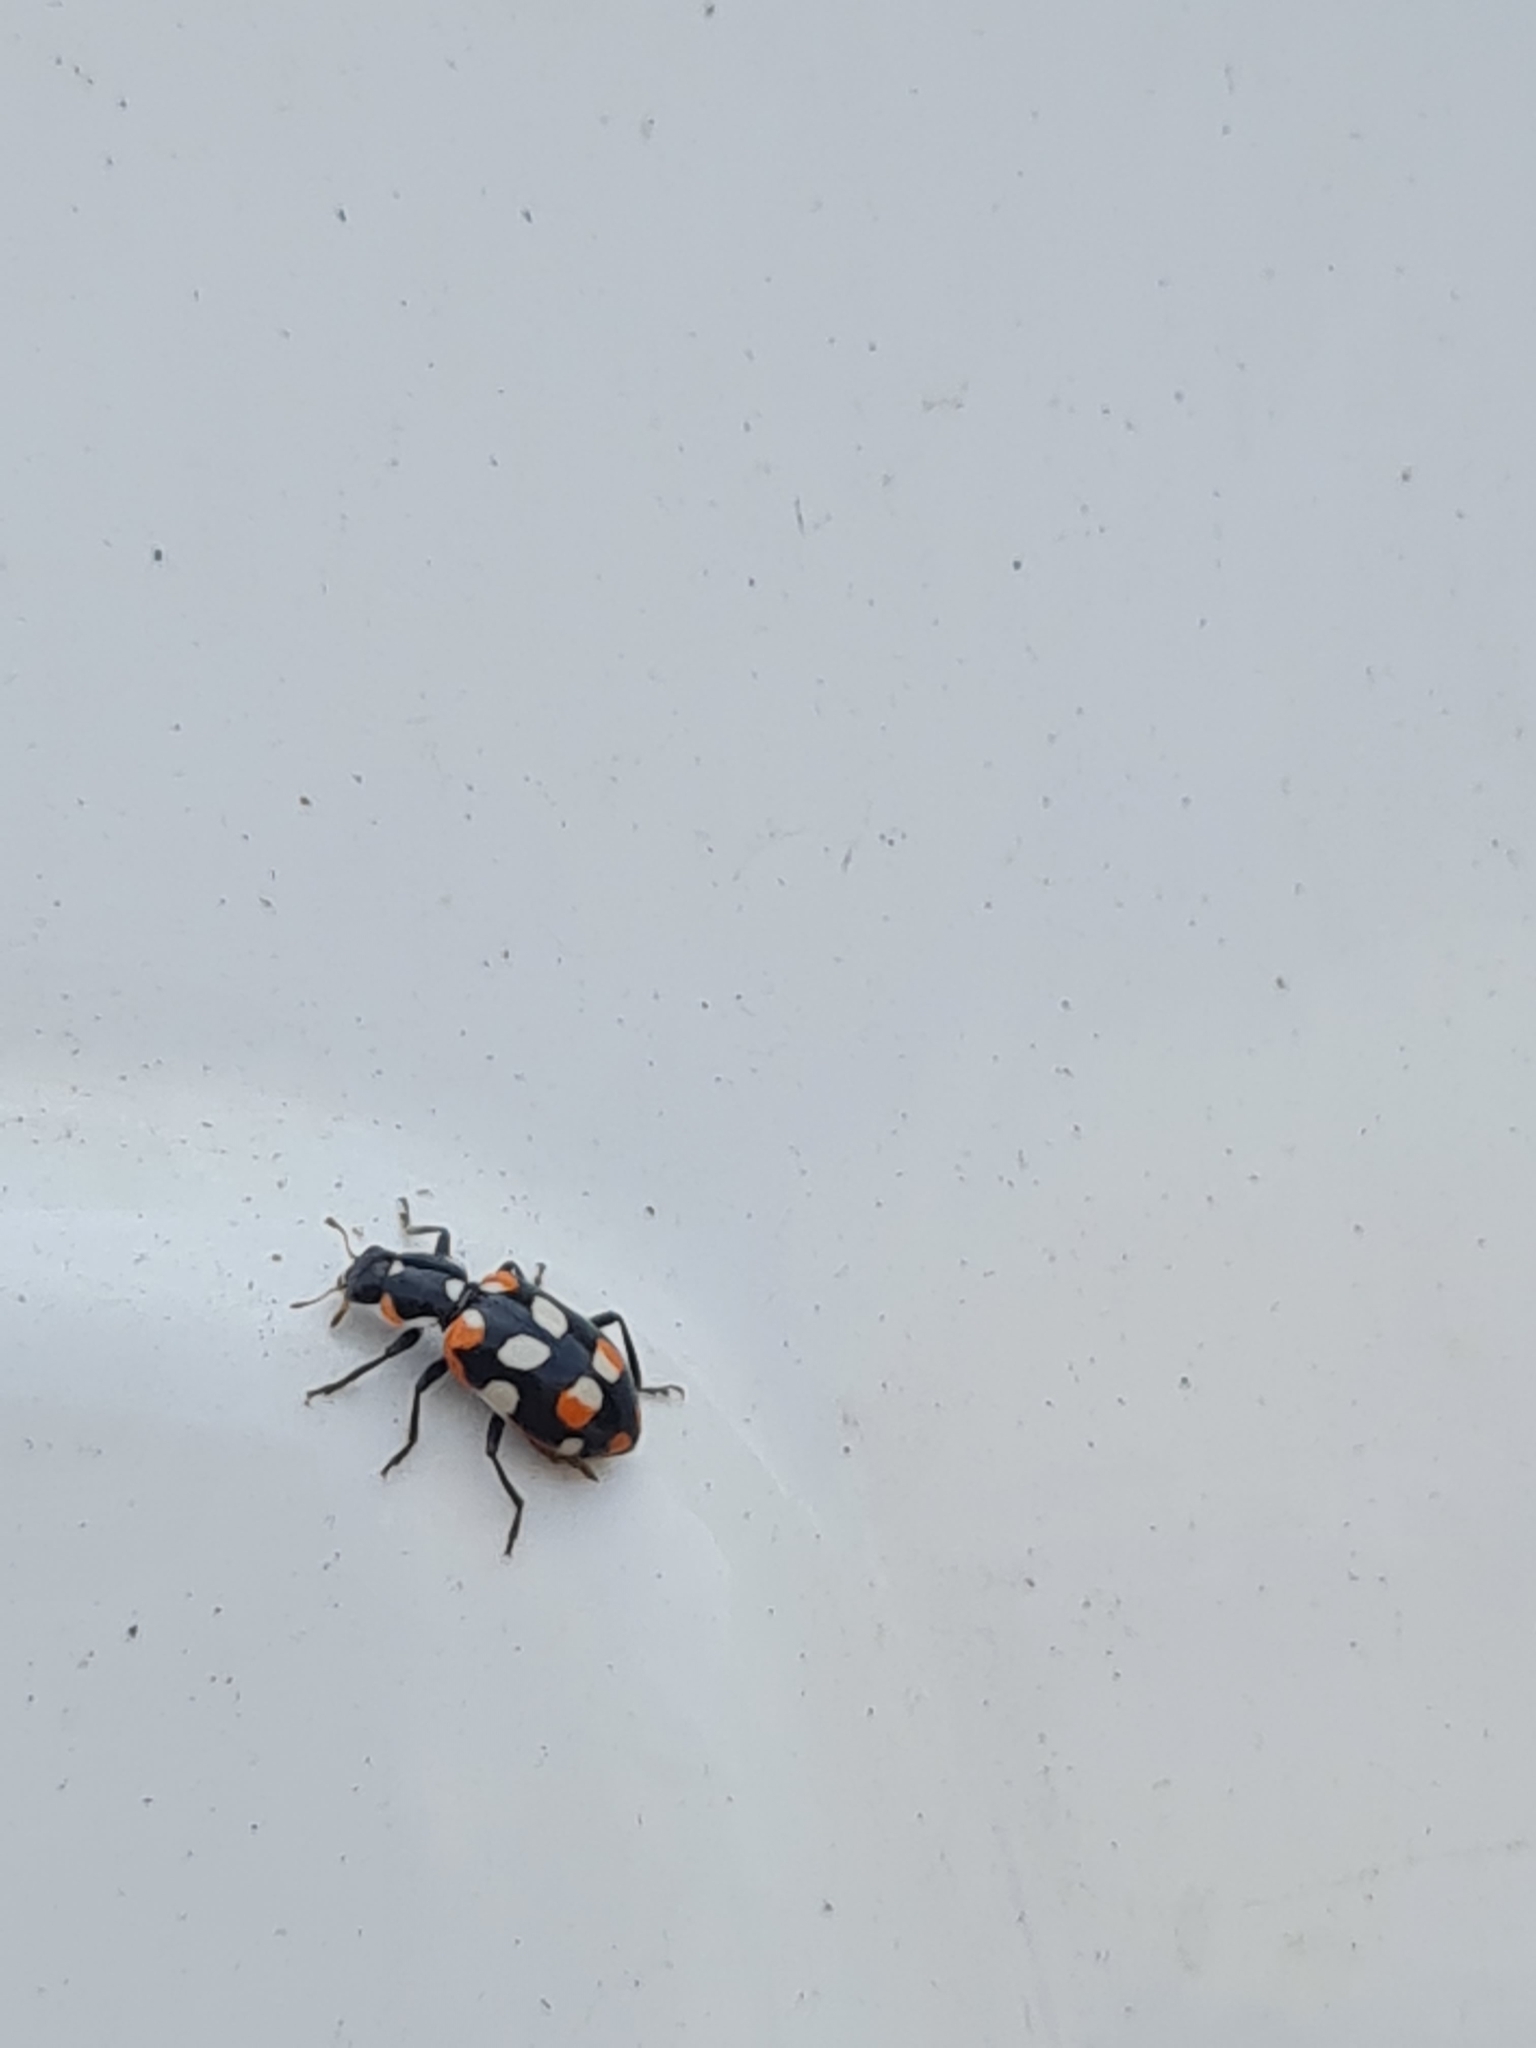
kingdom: Animalia
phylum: Arthropoda
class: Insecta
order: Coleoptera
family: Coccinellidae
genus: Eriopis
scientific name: Eriopis connexa
